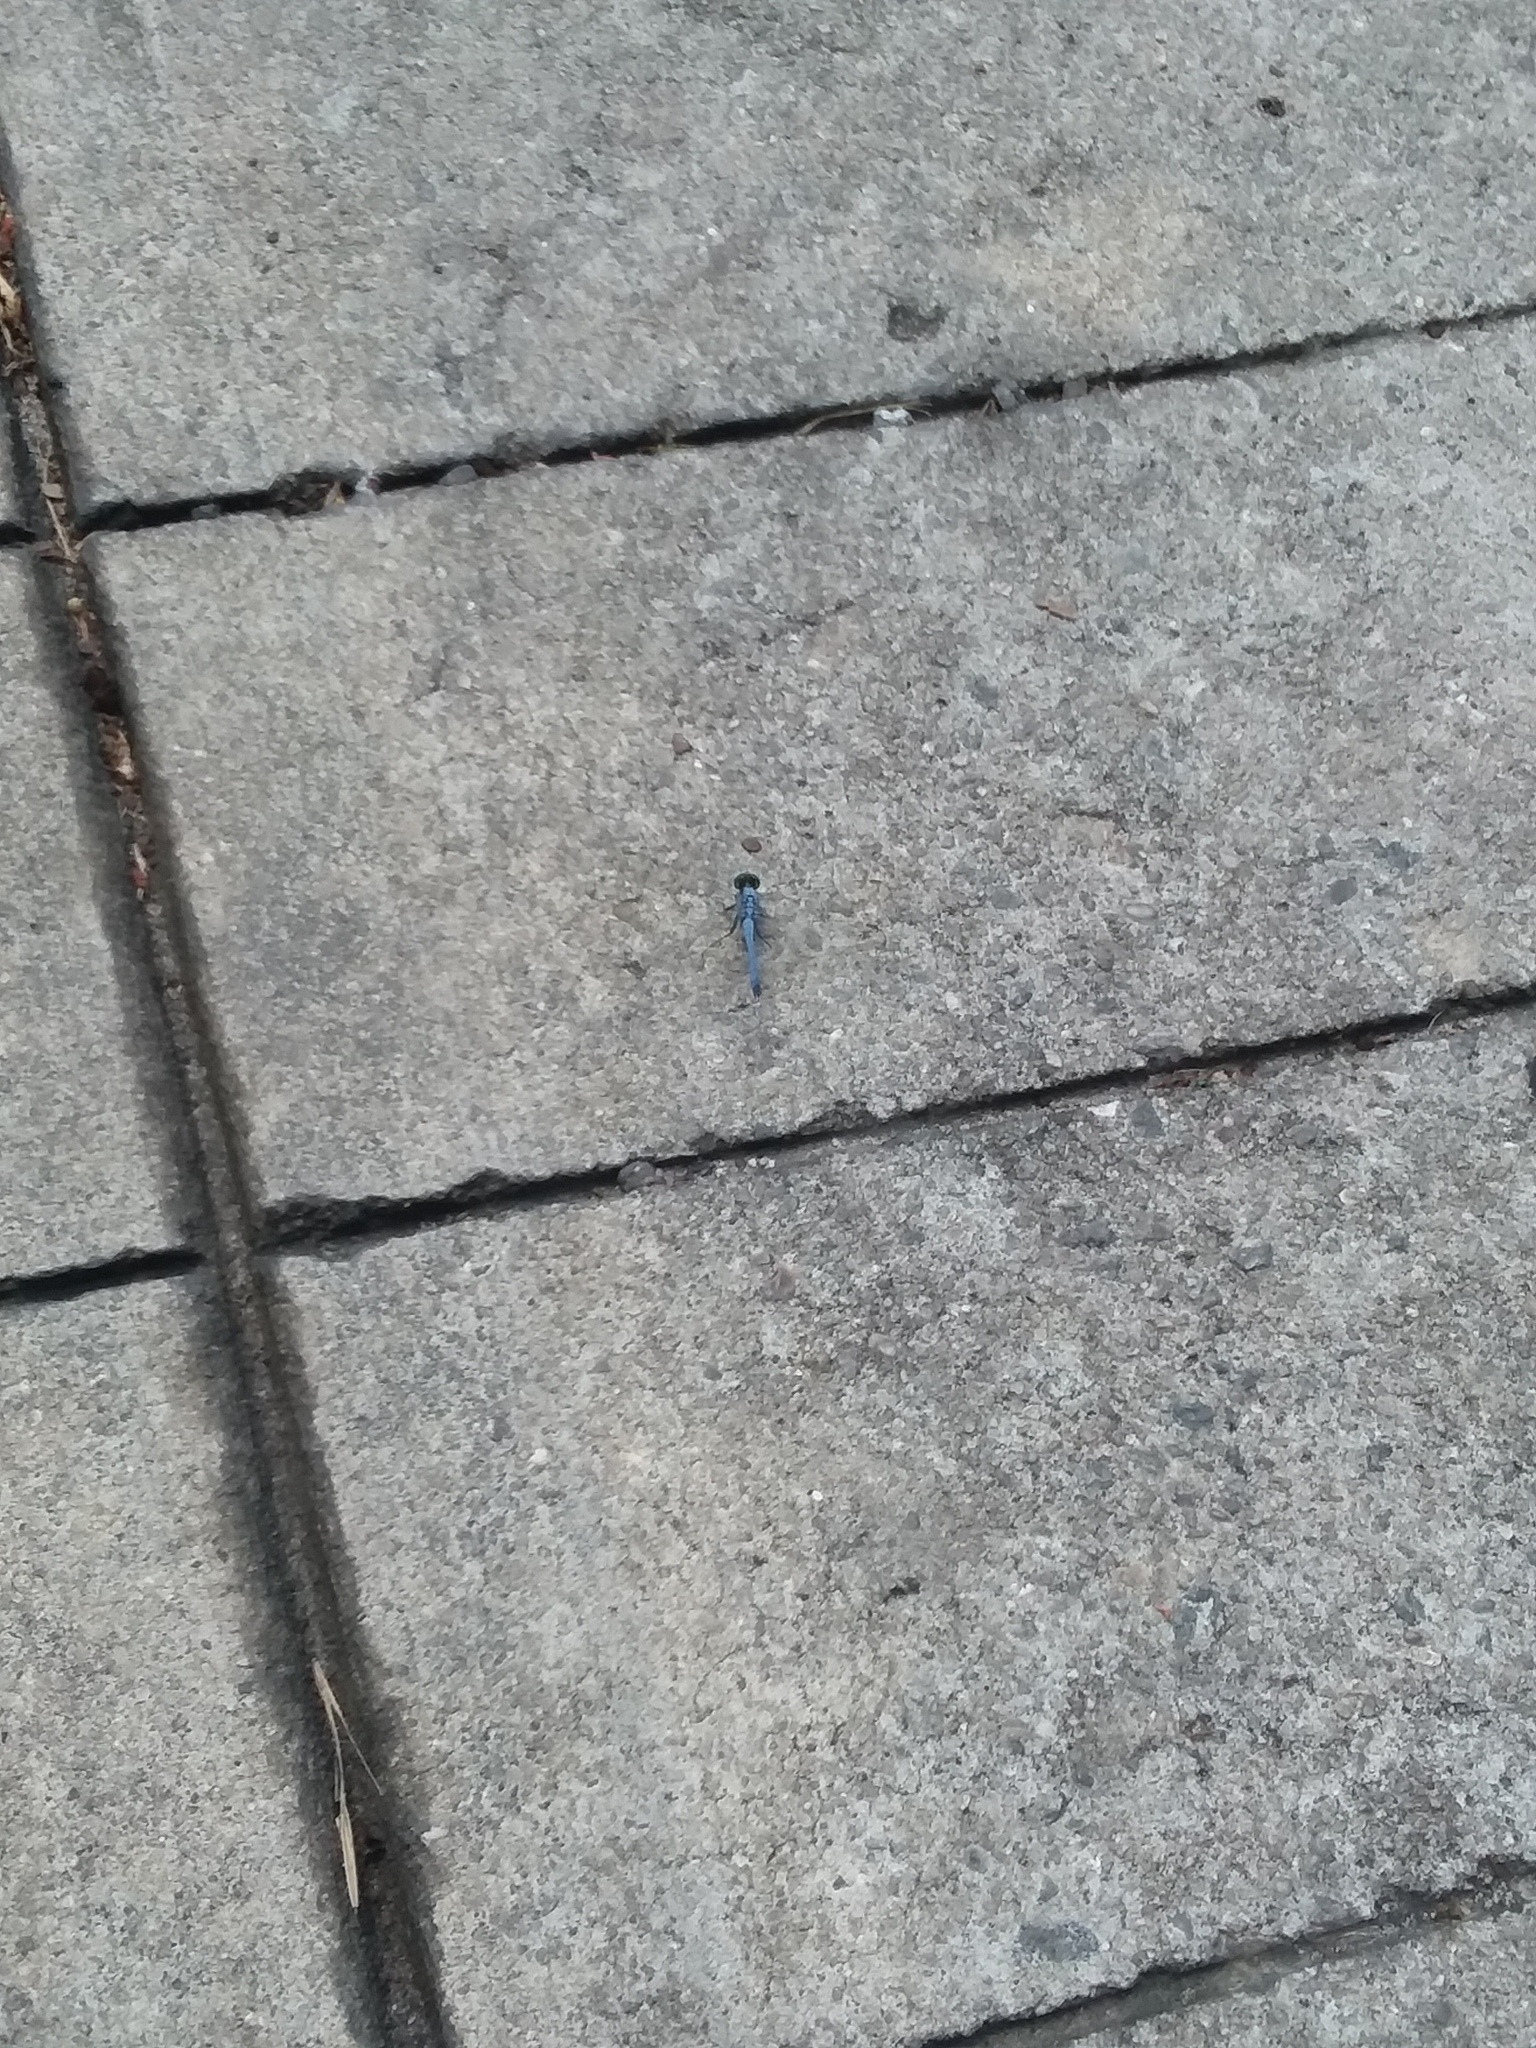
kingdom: Animalia
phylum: Arthropoda
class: Insecta
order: Odonata
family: Libellulidae
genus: Erythemis
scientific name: Erythemis simplicicollis
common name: Eastern pondhawk
